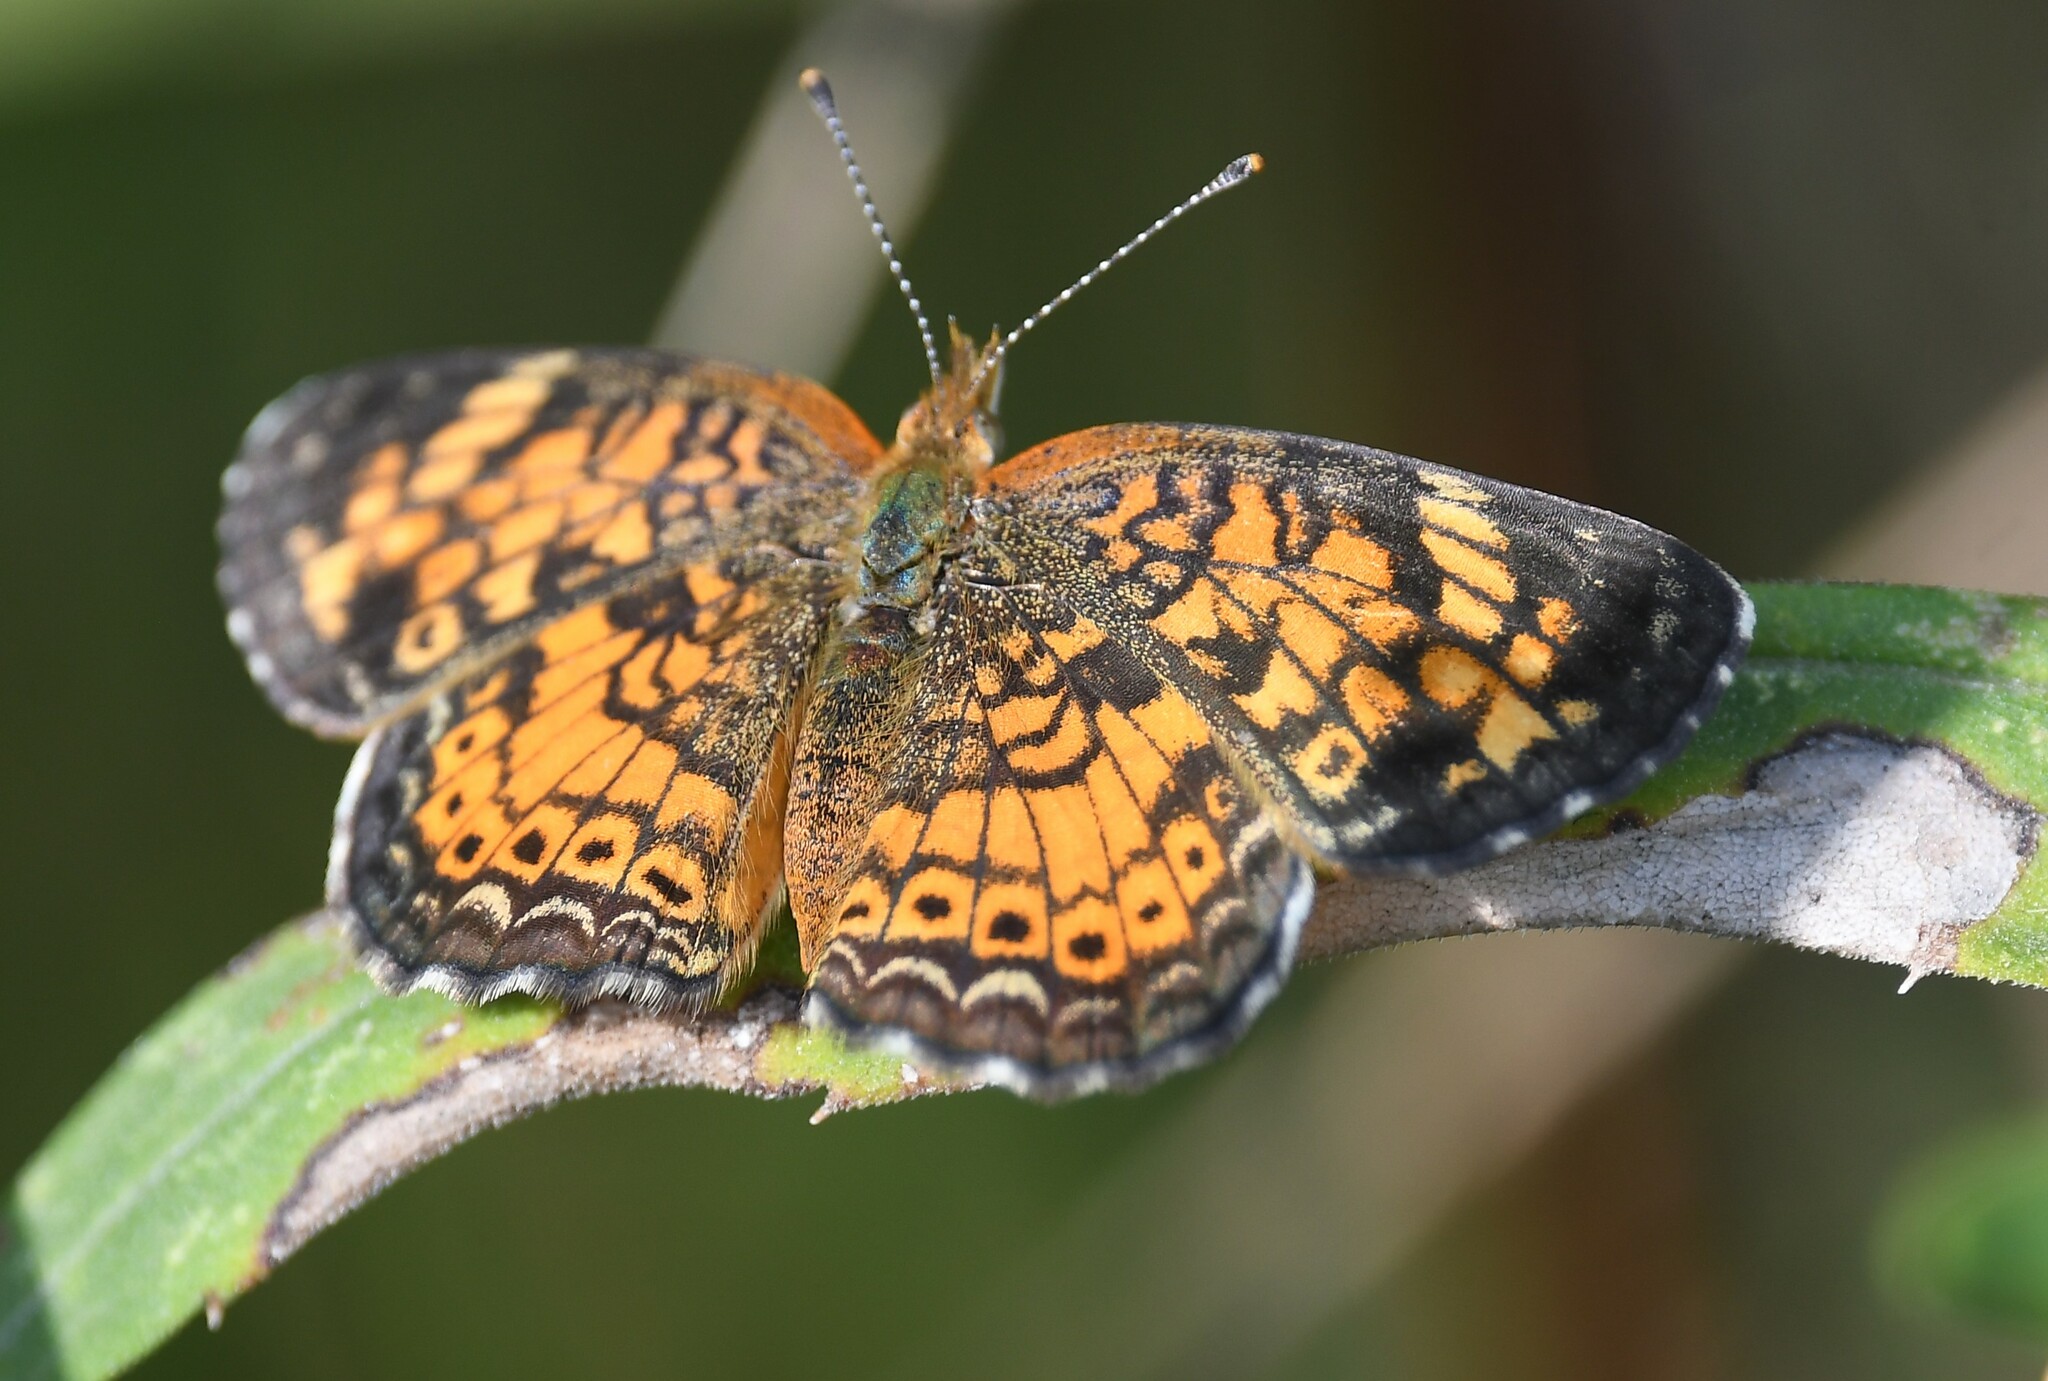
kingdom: Animalia
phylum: Arthropoda
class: Insecta
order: Lepidoptera
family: Nymphalidae
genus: Phyciodes
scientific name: Phyciodes tharos
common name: Pearl crescent
